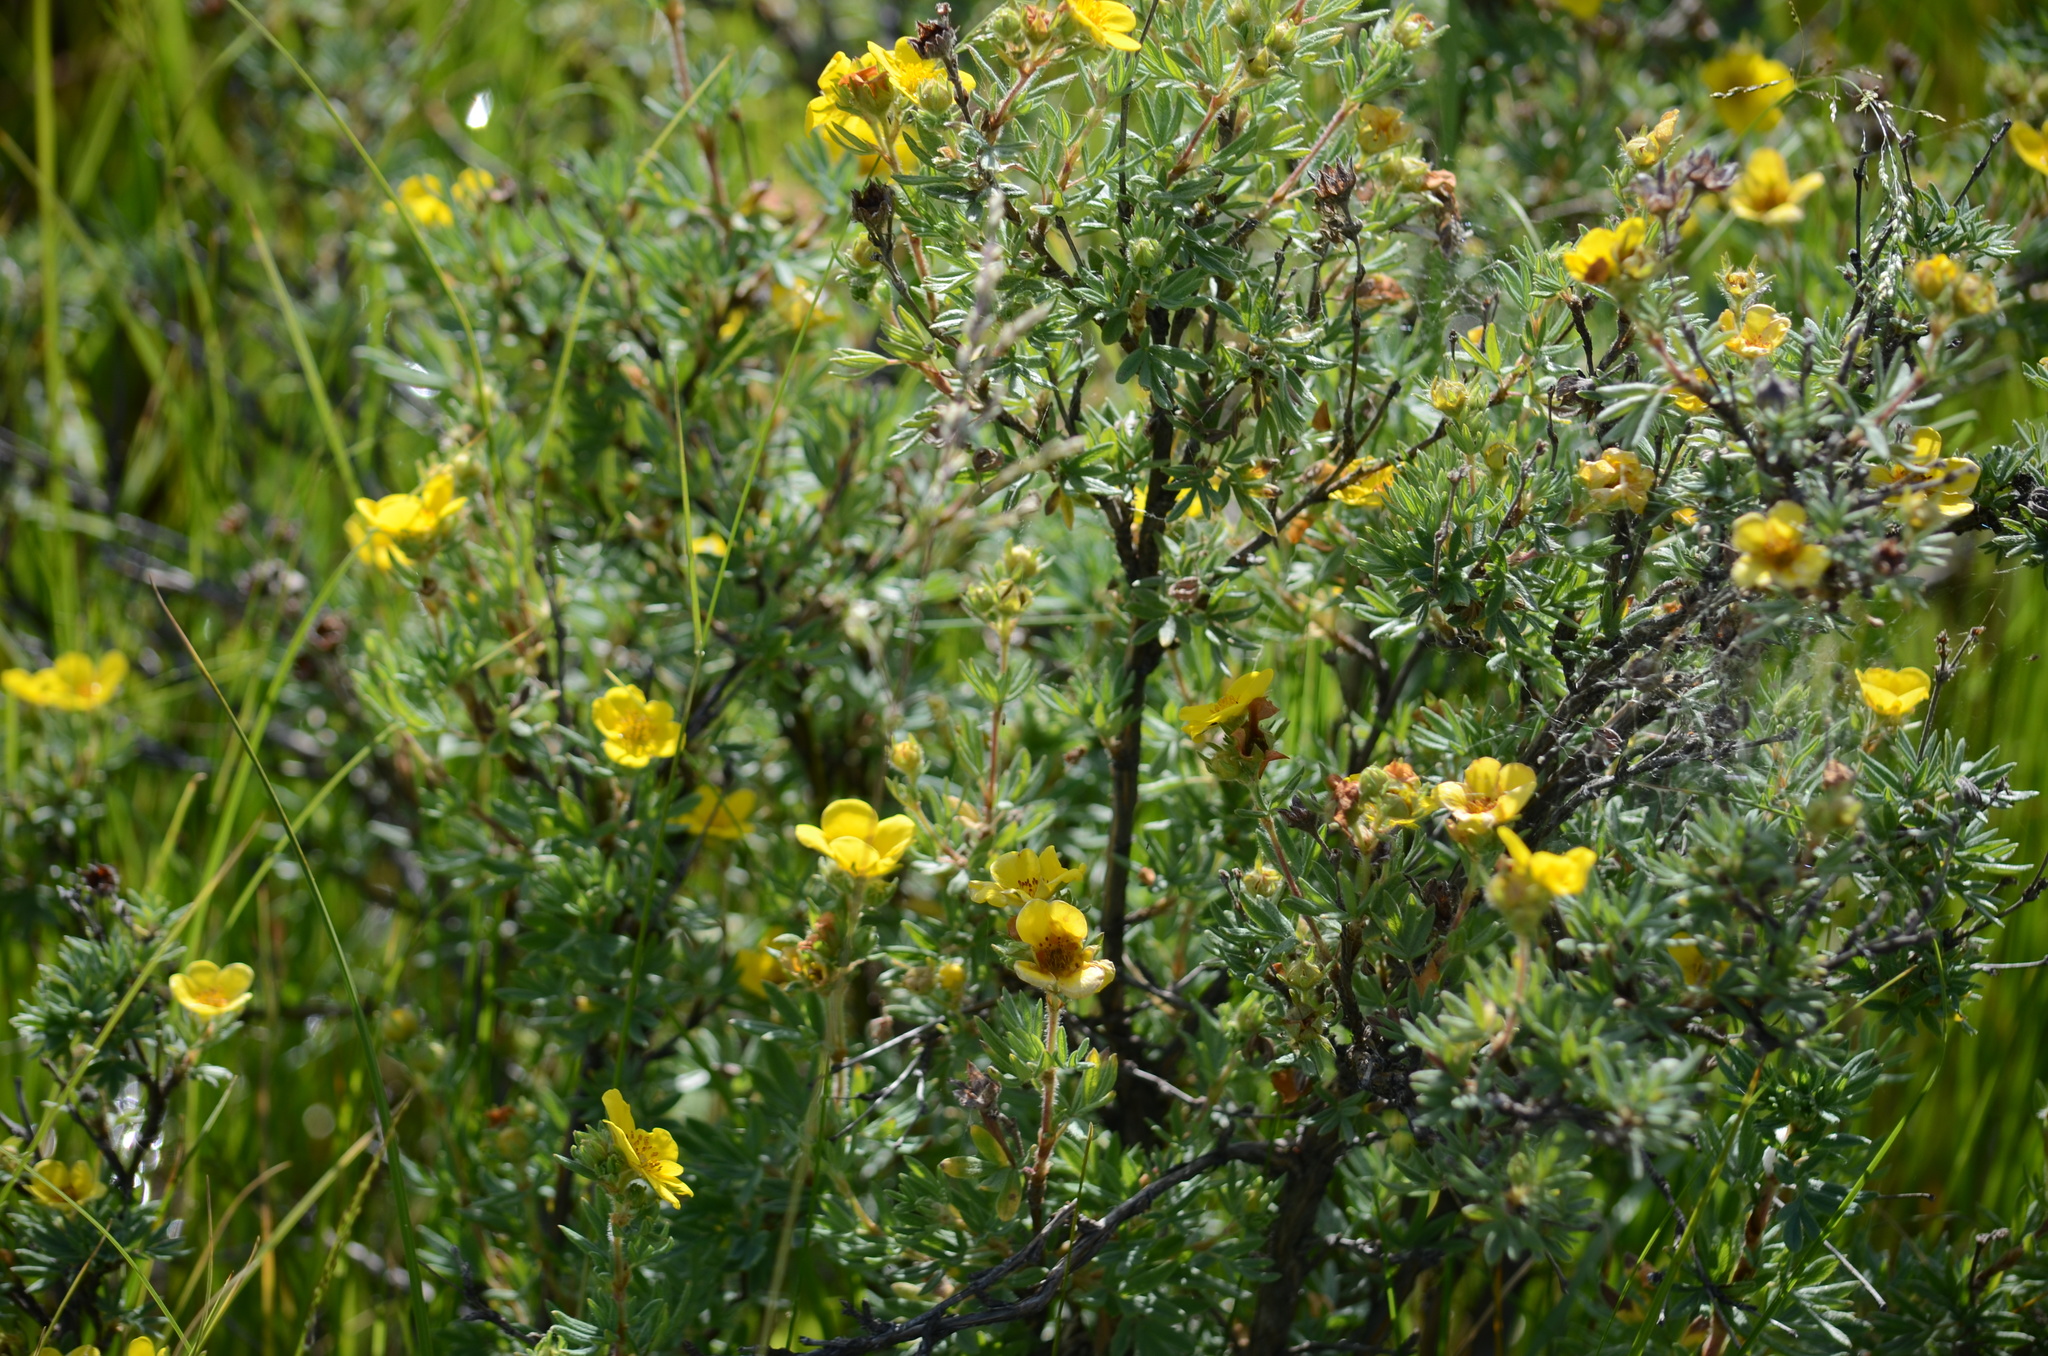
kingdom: Plantae
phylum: Tracheophyta
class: Magnoliopsida
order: Rosales
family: Rosaceae
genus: Dasiphora
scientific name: Dasiphora fruticosa
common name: Shrubby cinquefoil
